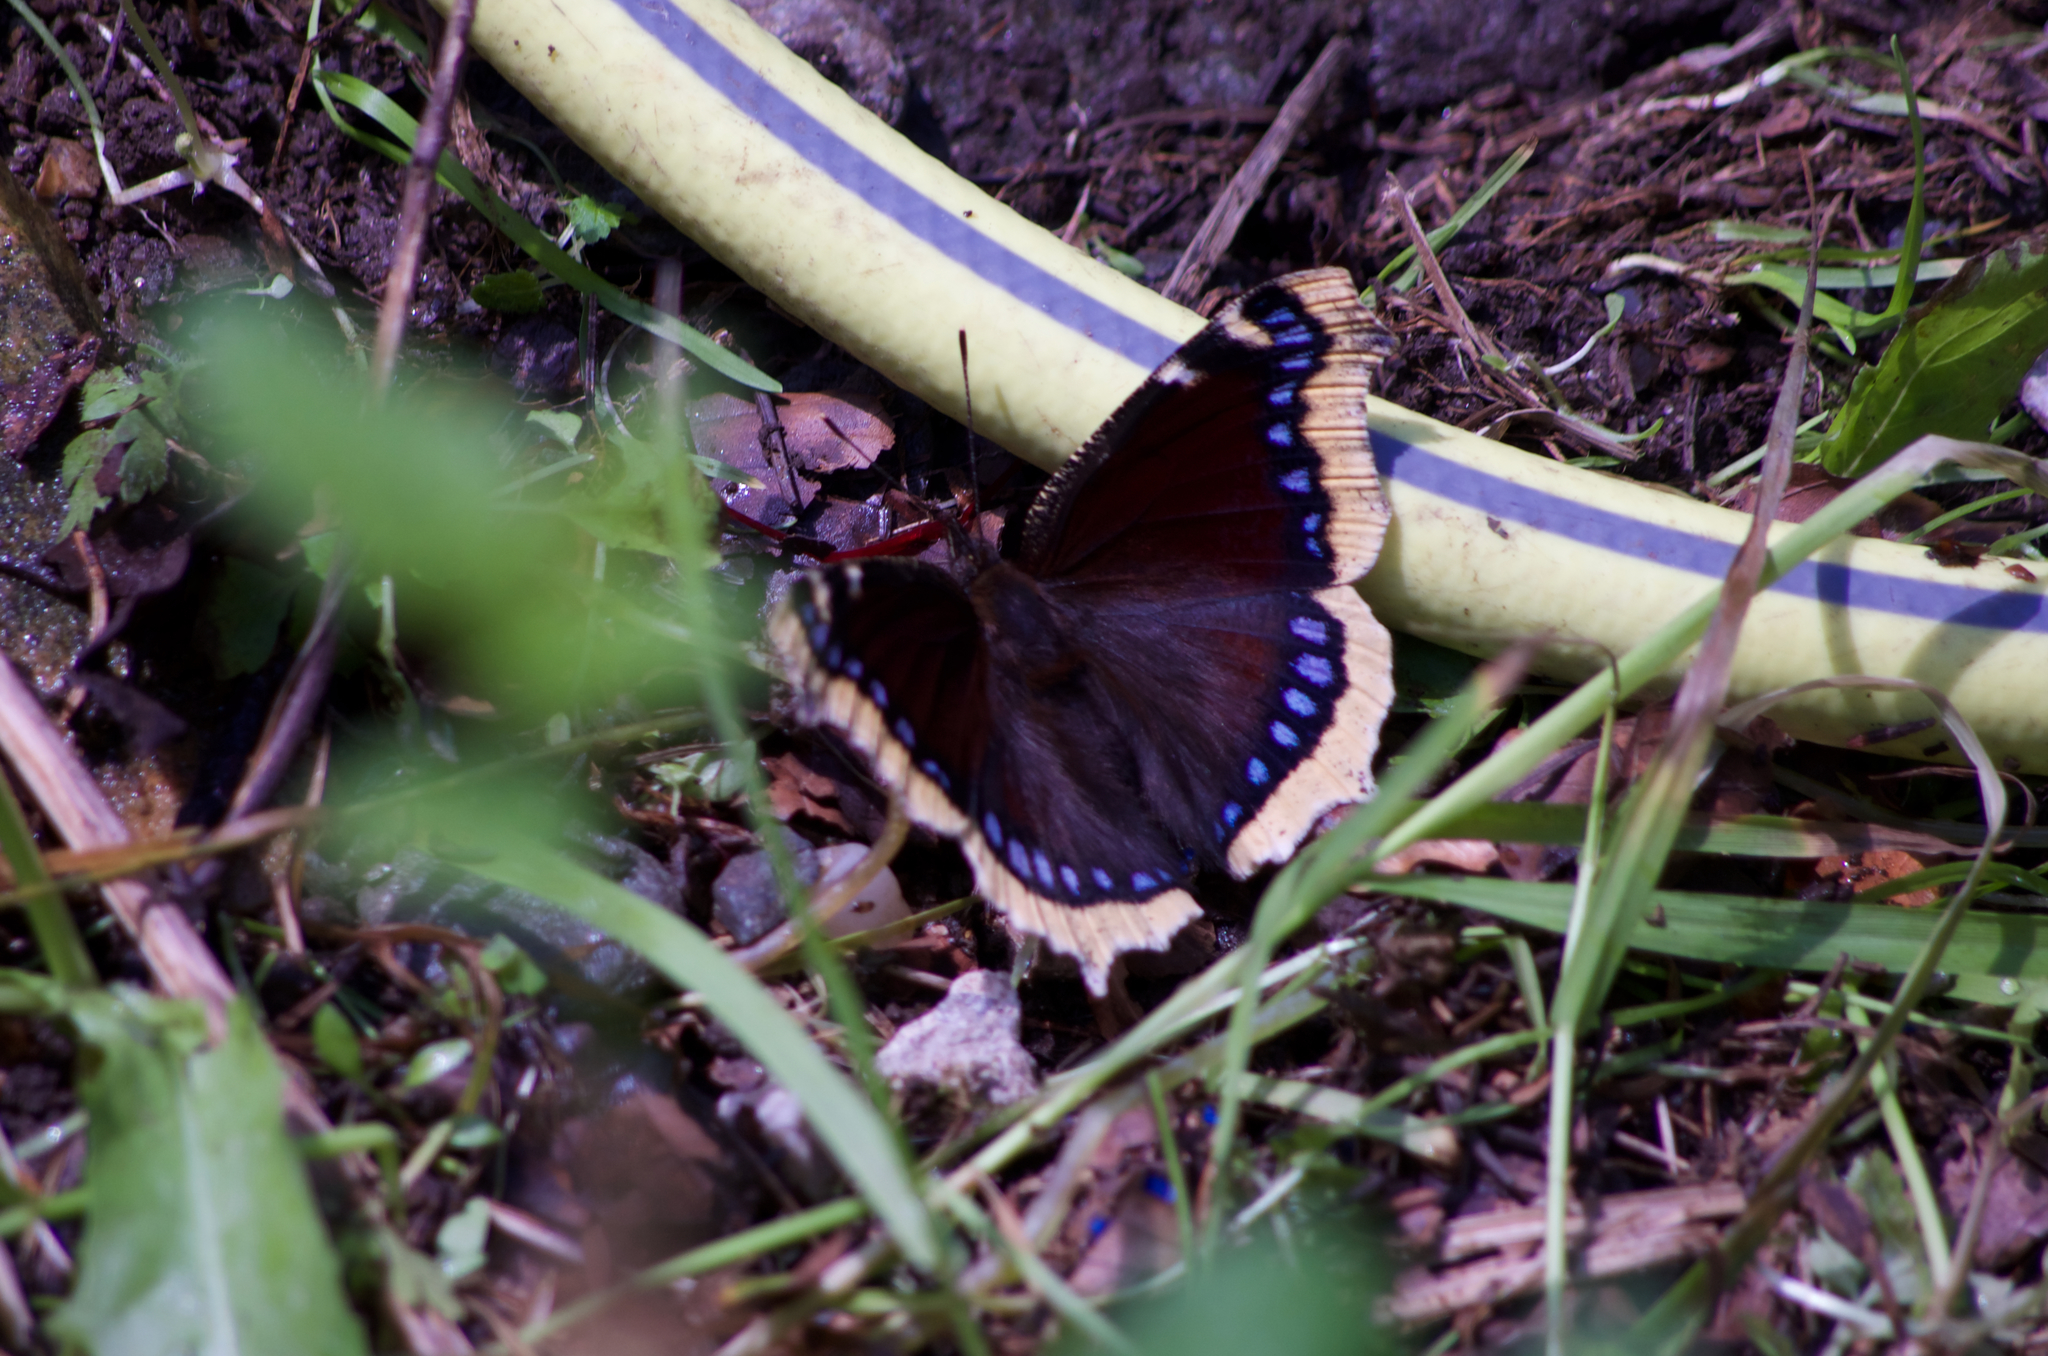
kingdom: Animalia
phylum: Arthropoda
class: Insecta
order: Lepidoptera
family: Nymphalidae
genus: Nymphalis
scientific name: Nymphalis antiopa
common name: Camberwell beauty
